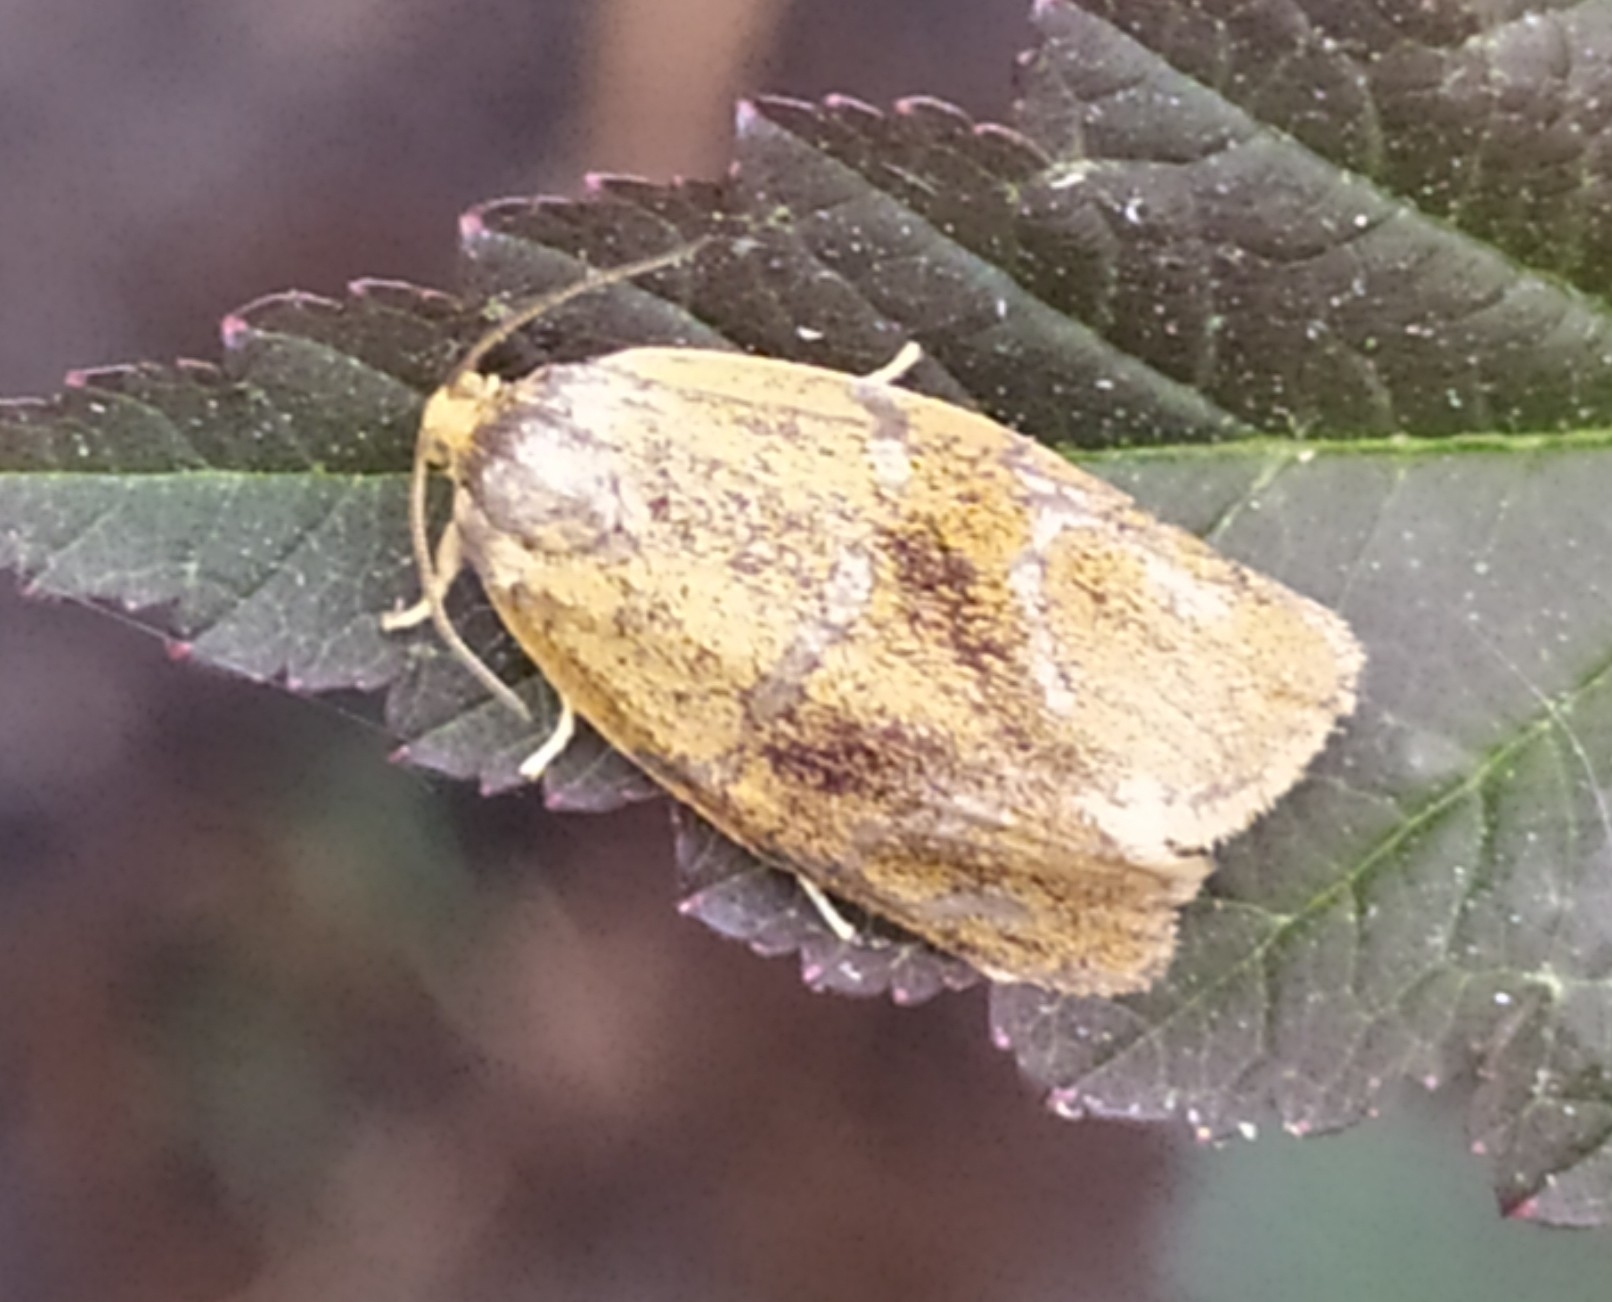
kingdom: Animalia
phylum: Arthropoda
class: Insecta
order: Lepidoptera
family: Tortricidae
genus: Ptycholoma
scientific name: Ptycholoma lecheana
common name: Leches twist moth
